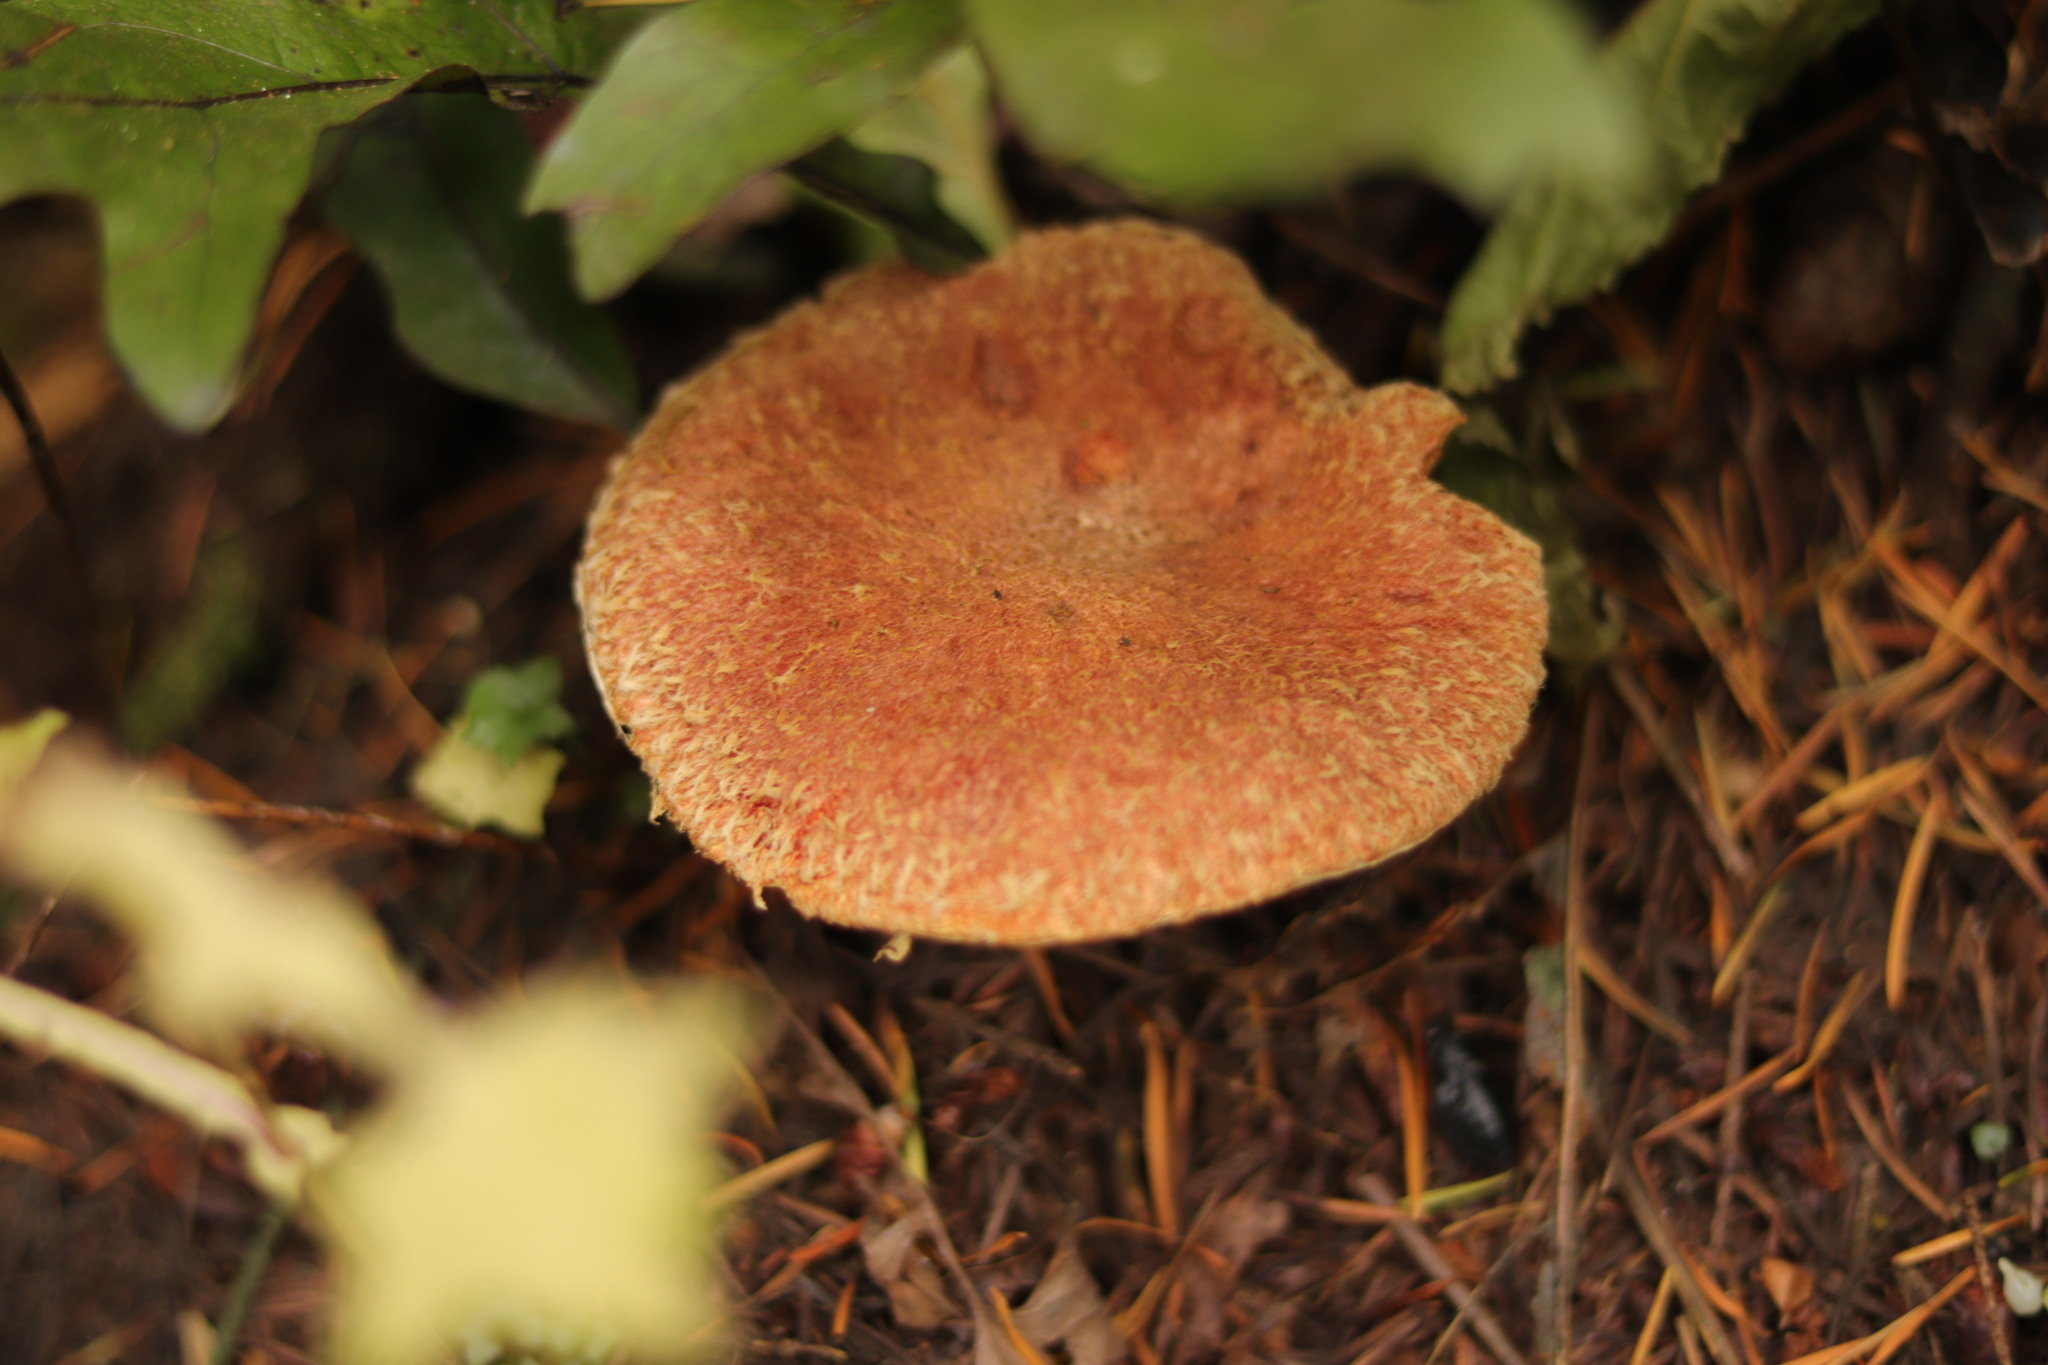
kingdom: Fungi
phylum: Basidiomycota
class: Agaricomycetes
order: Boletales
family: Suillaceae
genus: Suillus
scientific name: Suillus lakei
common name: Western painted suillus
